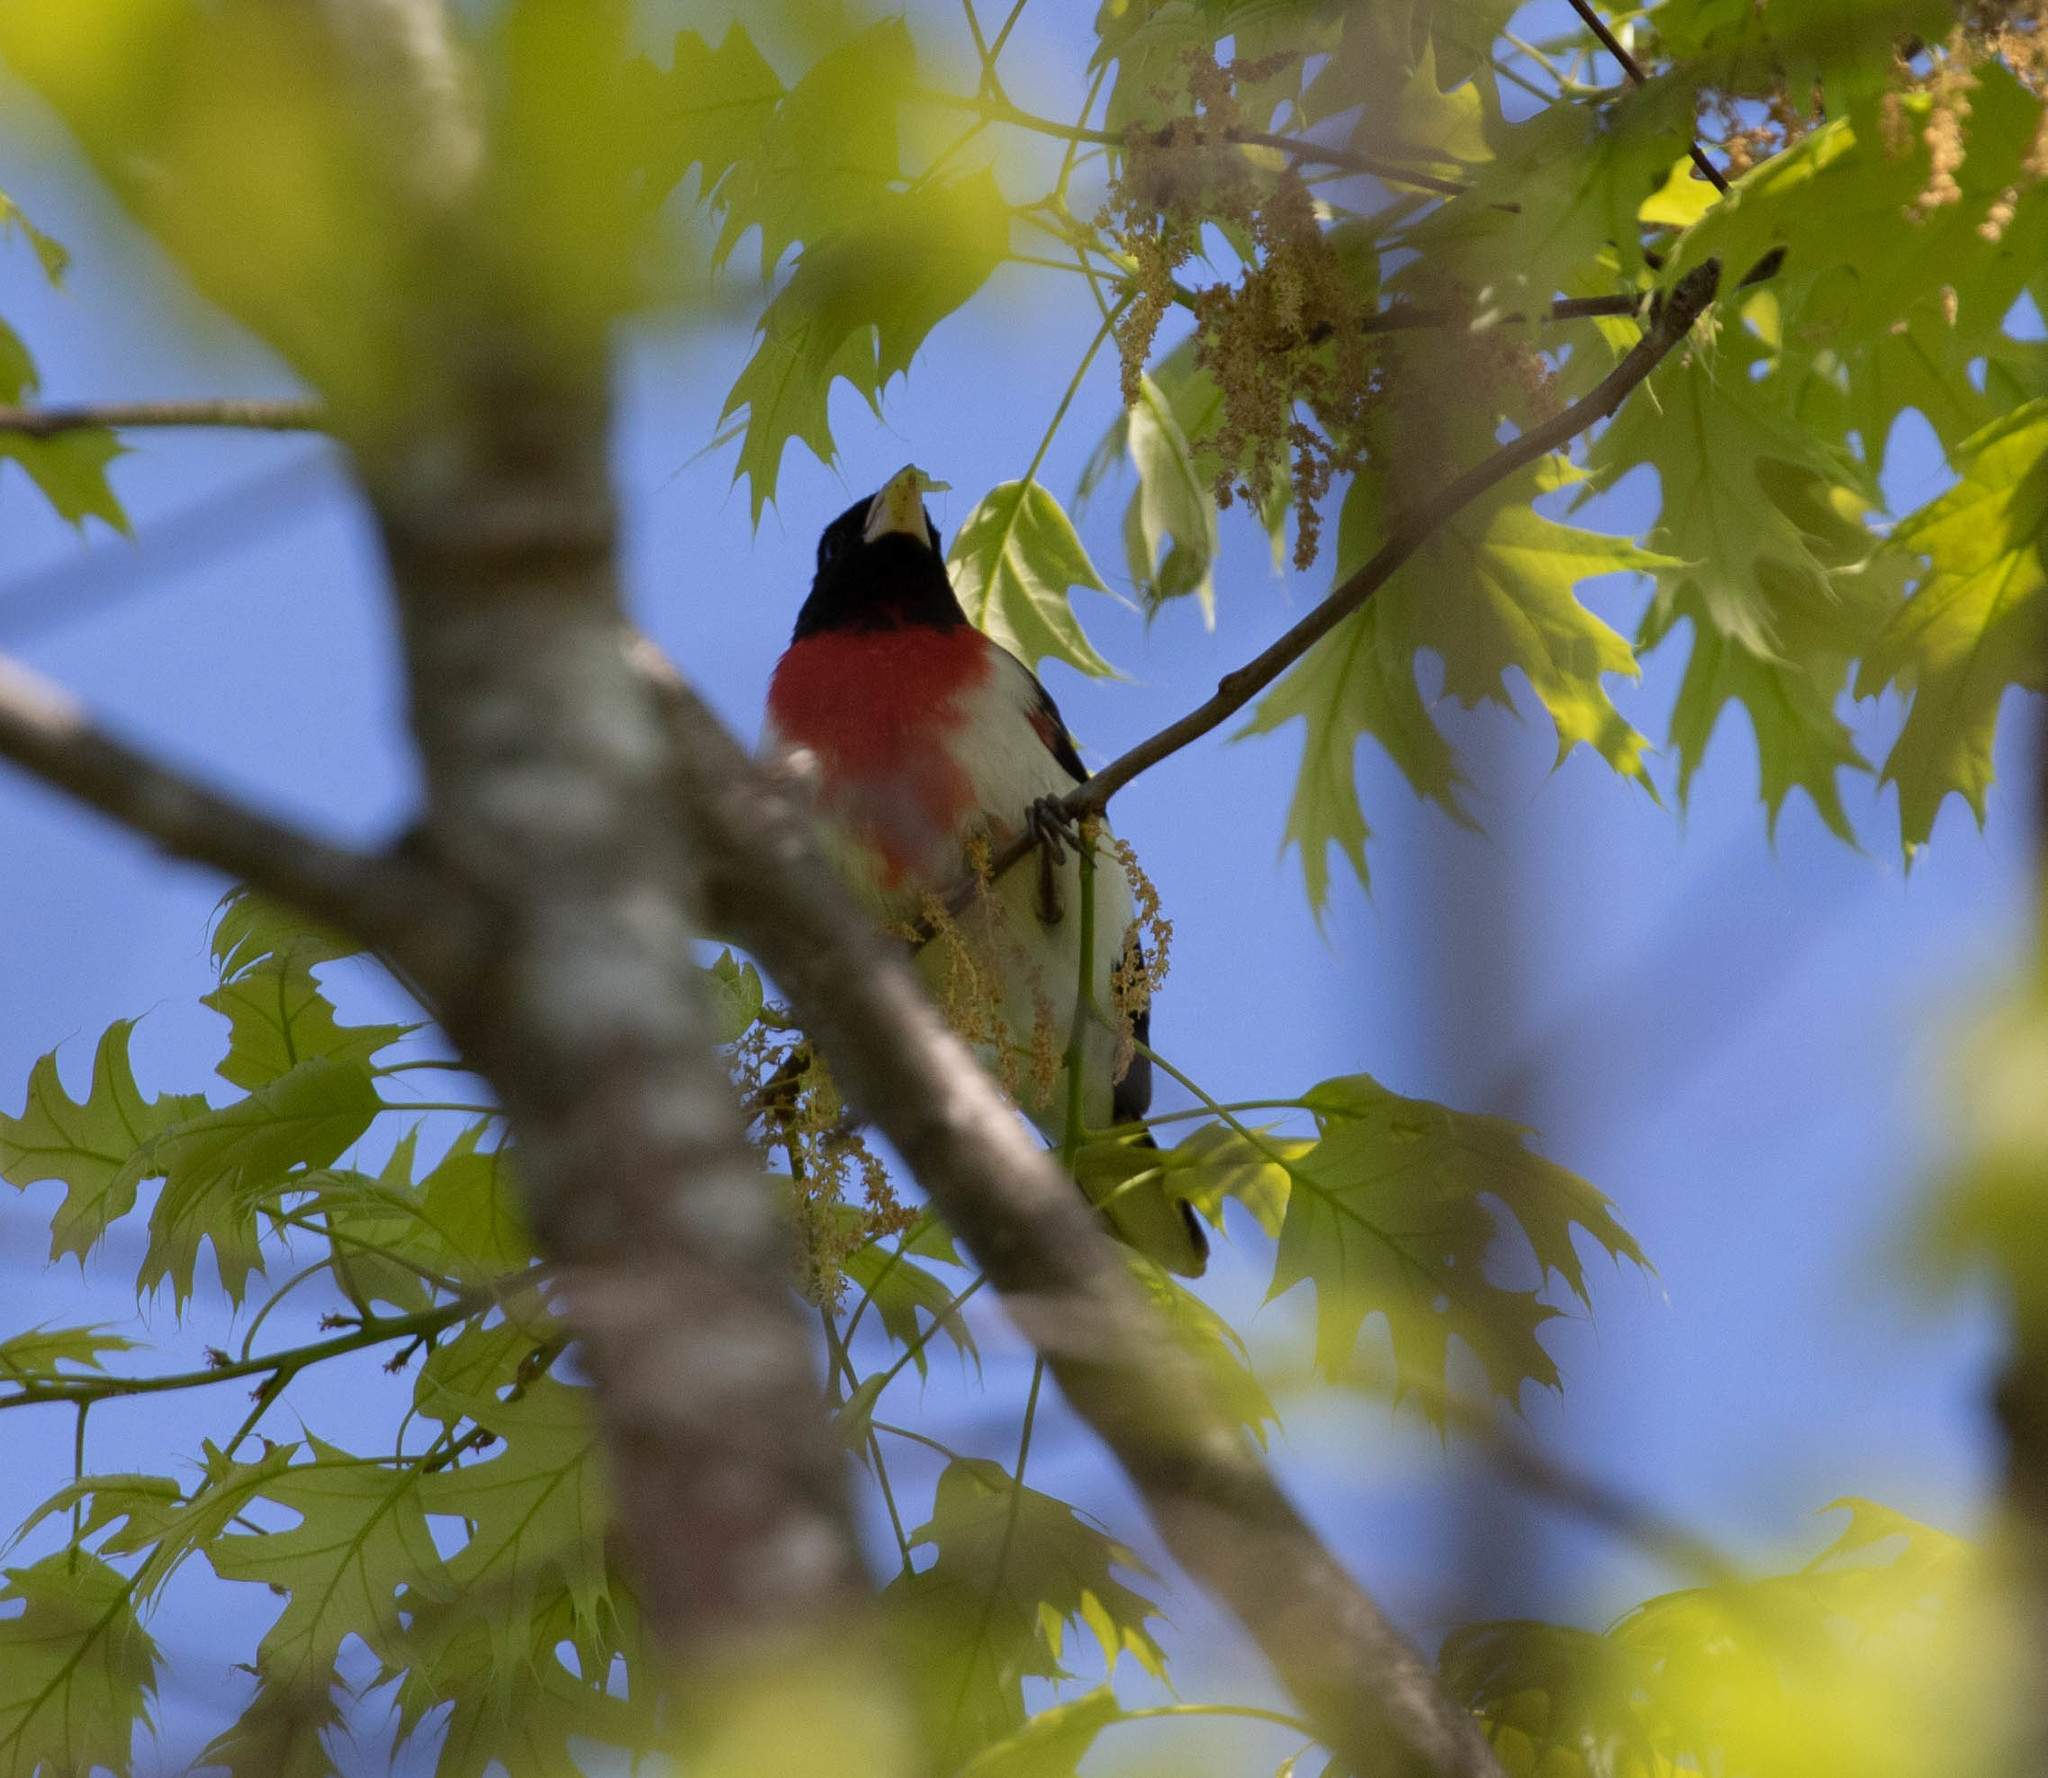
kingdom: Animalia
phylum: Chordata
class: Aves
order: Passeriformes
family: Cardinalidae
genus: Pheucticus
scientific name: Pheucticus ludovicianus
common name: Rose-breasted grosbeak
